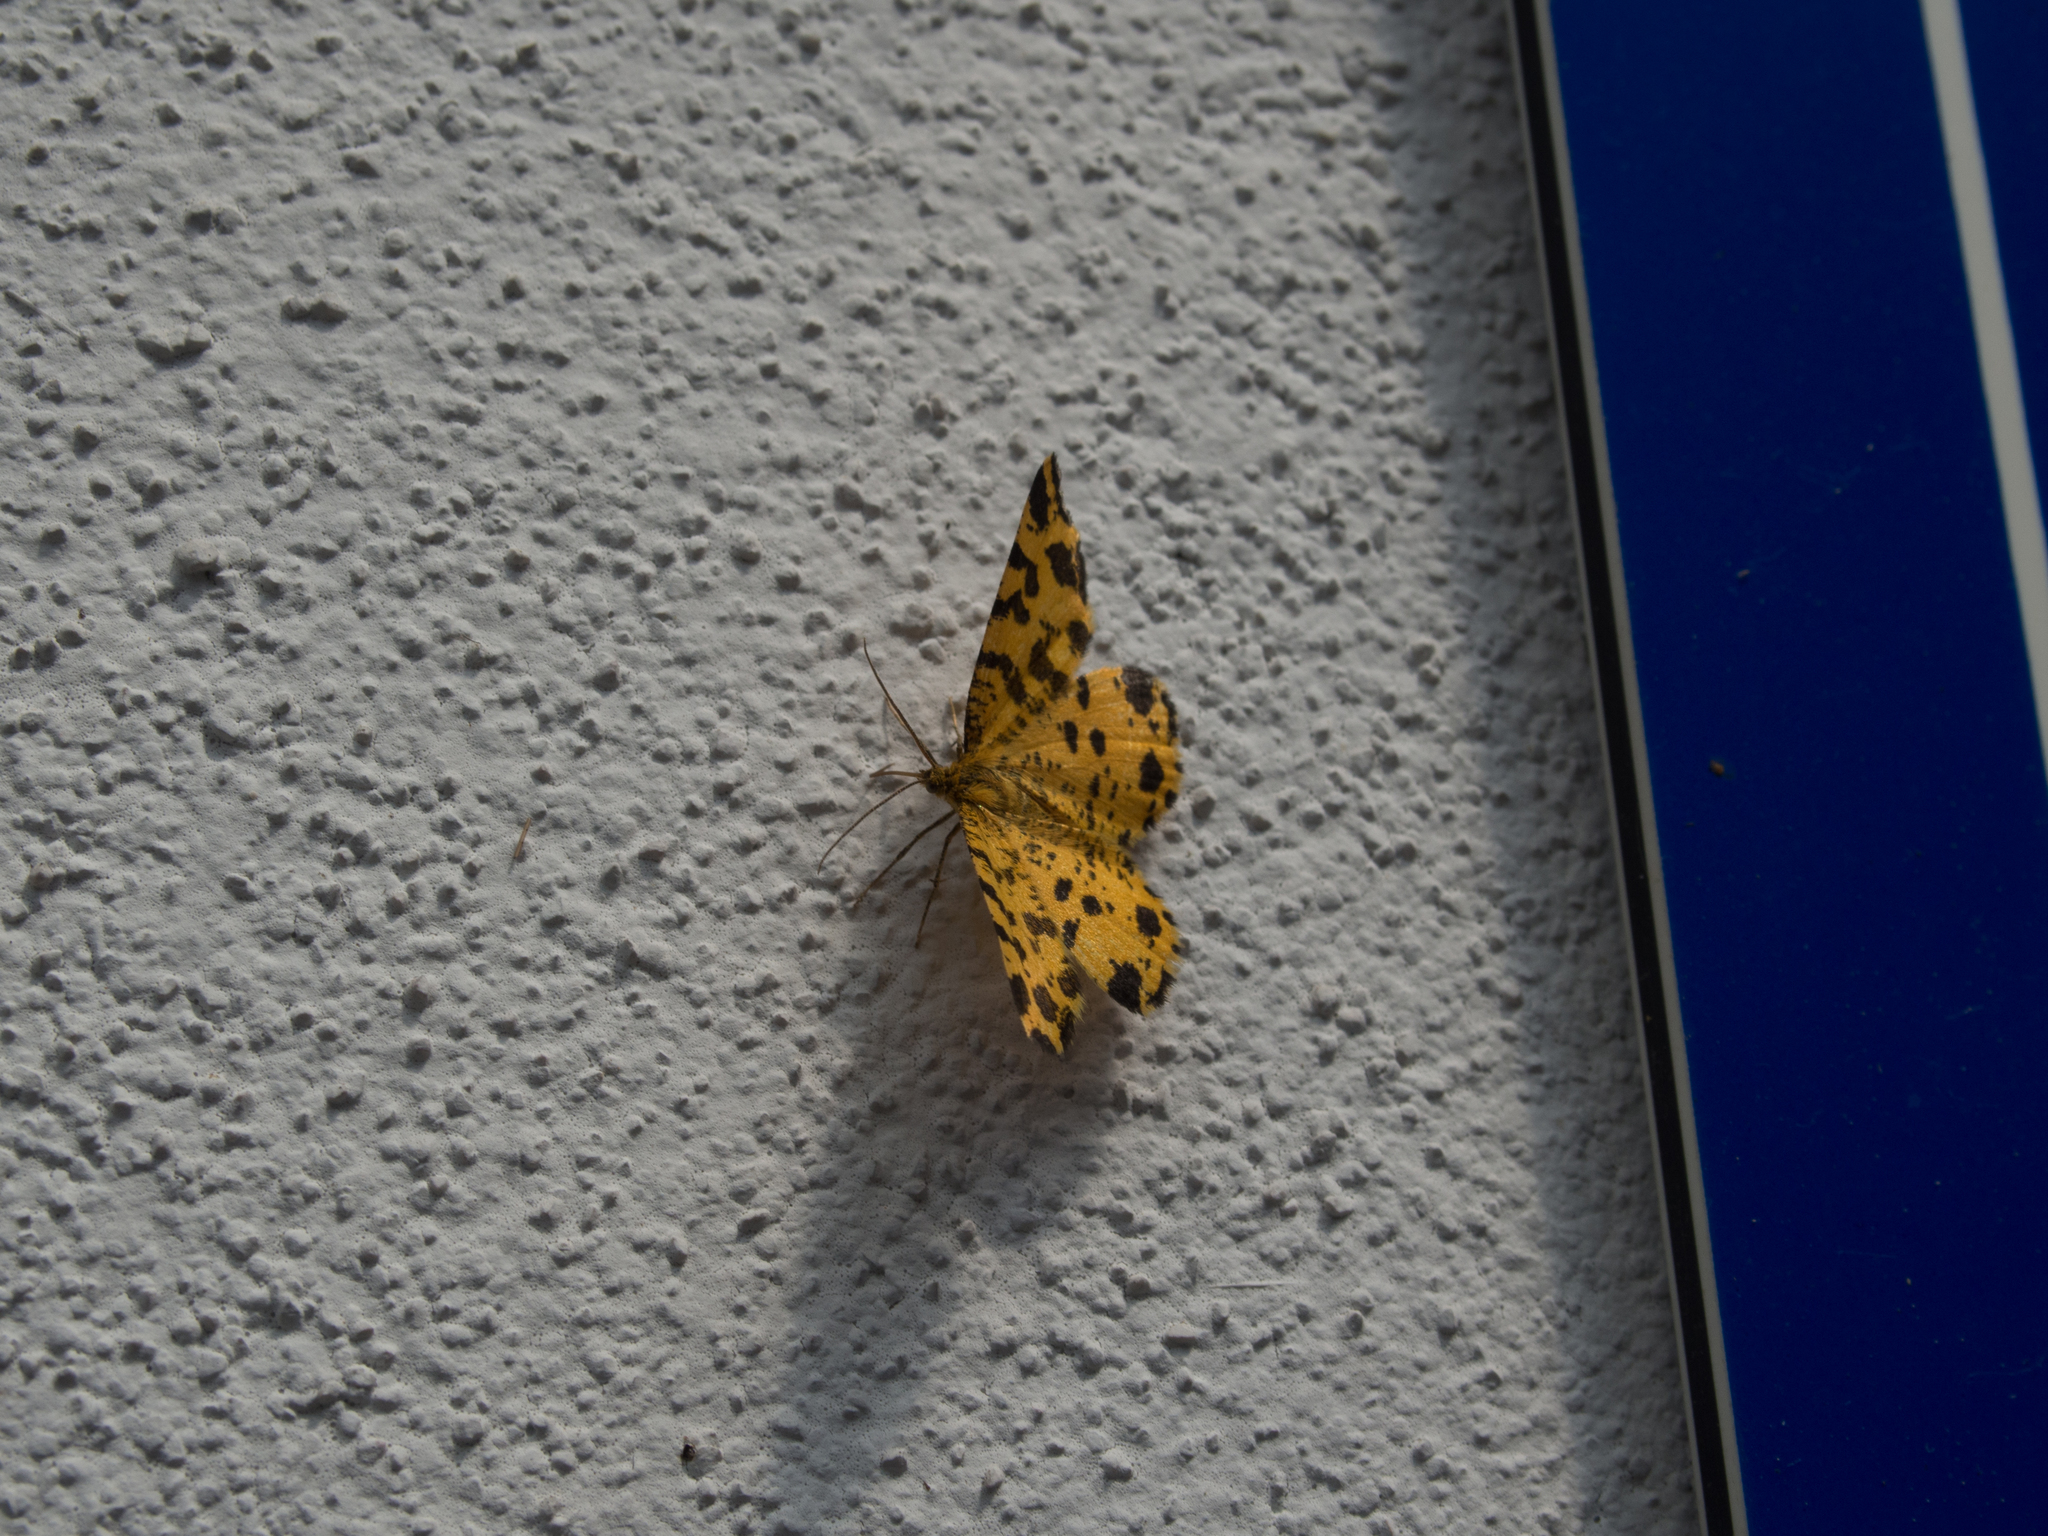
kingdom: Animalia
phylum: Arthropoda
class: Insecta
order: Lepidoptera
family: Geometridae
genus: Pseudopanthera
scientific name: Pseudopanthera macularia
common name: Speckled yellow
